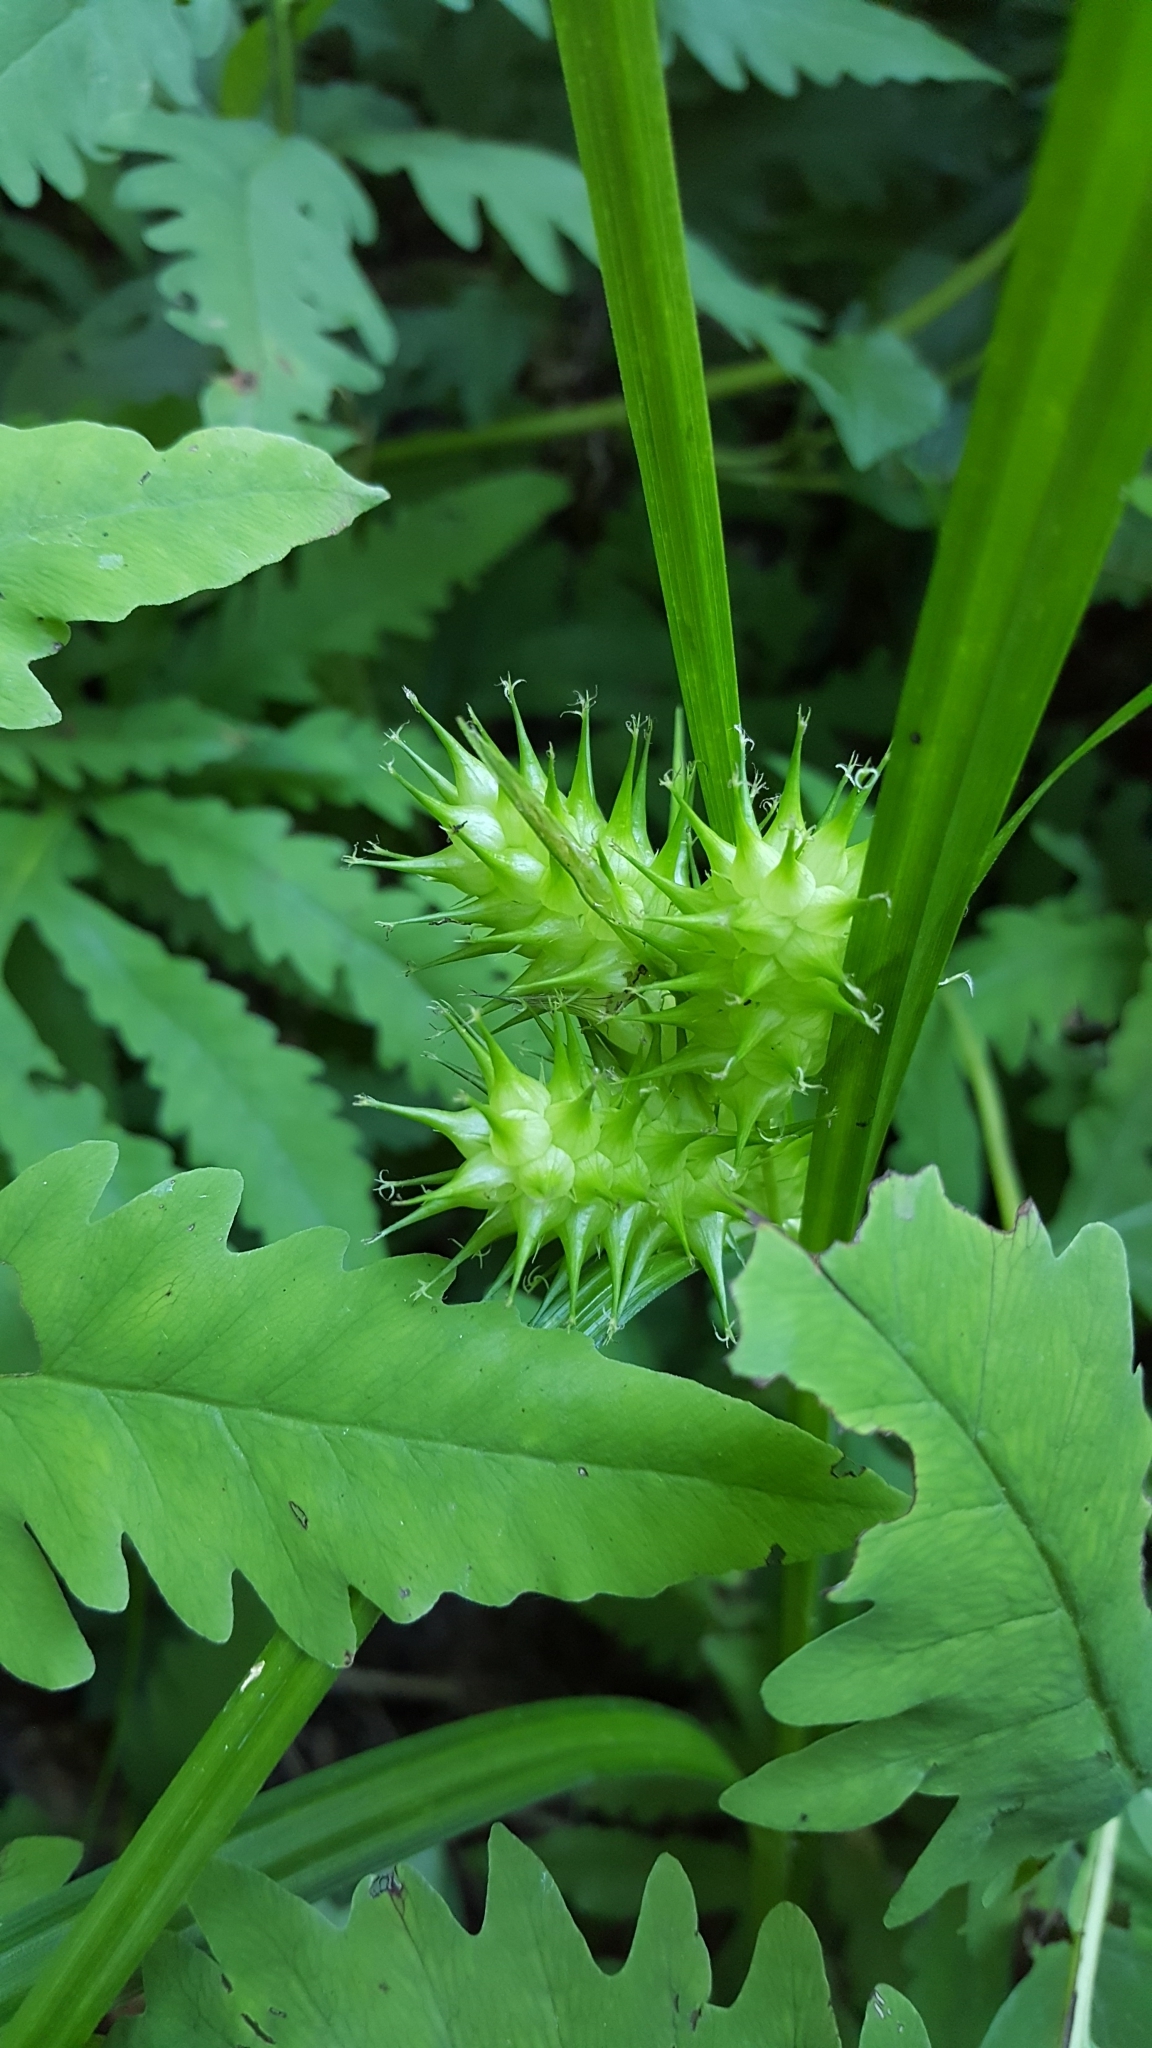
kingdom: Plantae
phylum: Tracheophyta
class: Liliopsida
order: Poales
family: Cyperaceae
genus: Carex
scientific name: Carex lupulina
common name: Hop sedge
